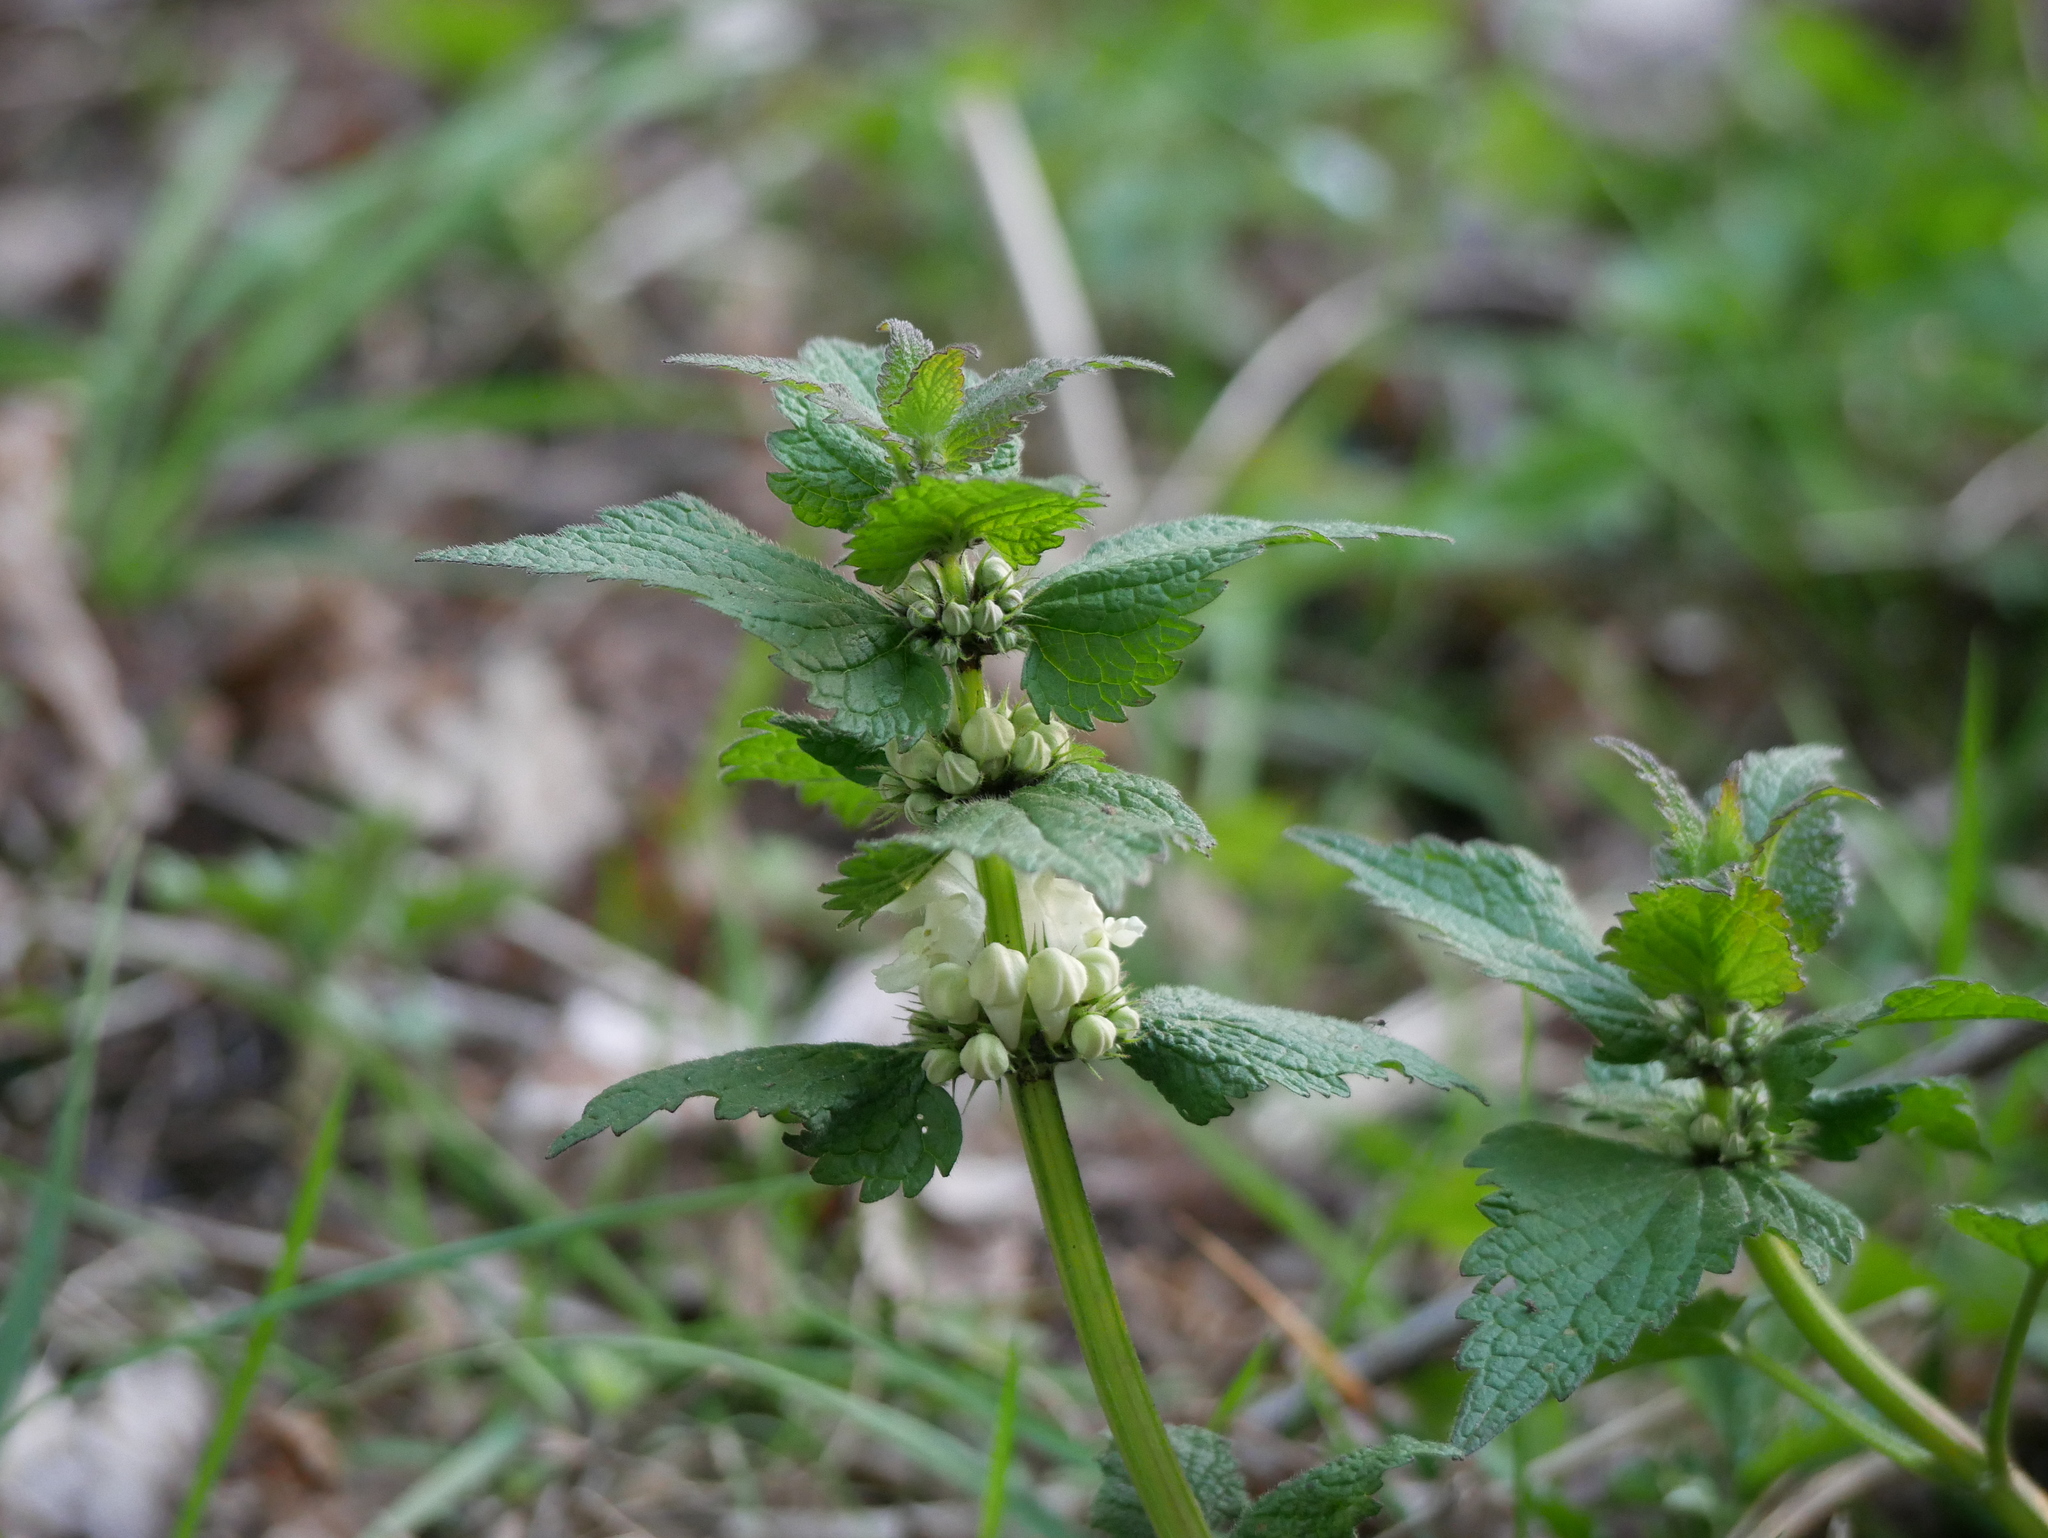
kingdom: Plantae
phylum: Tracheophyta
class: Magnoliopsida
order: Lamiales
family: Lamiaceae
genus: Lamium
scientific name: Lamium album
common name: White dead-nettle
